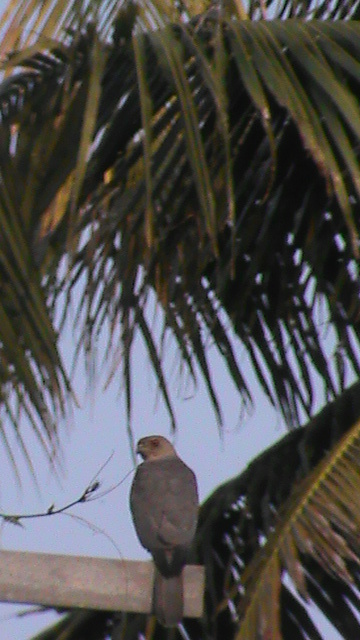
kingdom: Animalia
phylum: Chordata
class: Aves
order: Accipitriformes
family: Accipitridae
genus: Accipiter
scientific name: Accipiter badius
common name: Shikra
